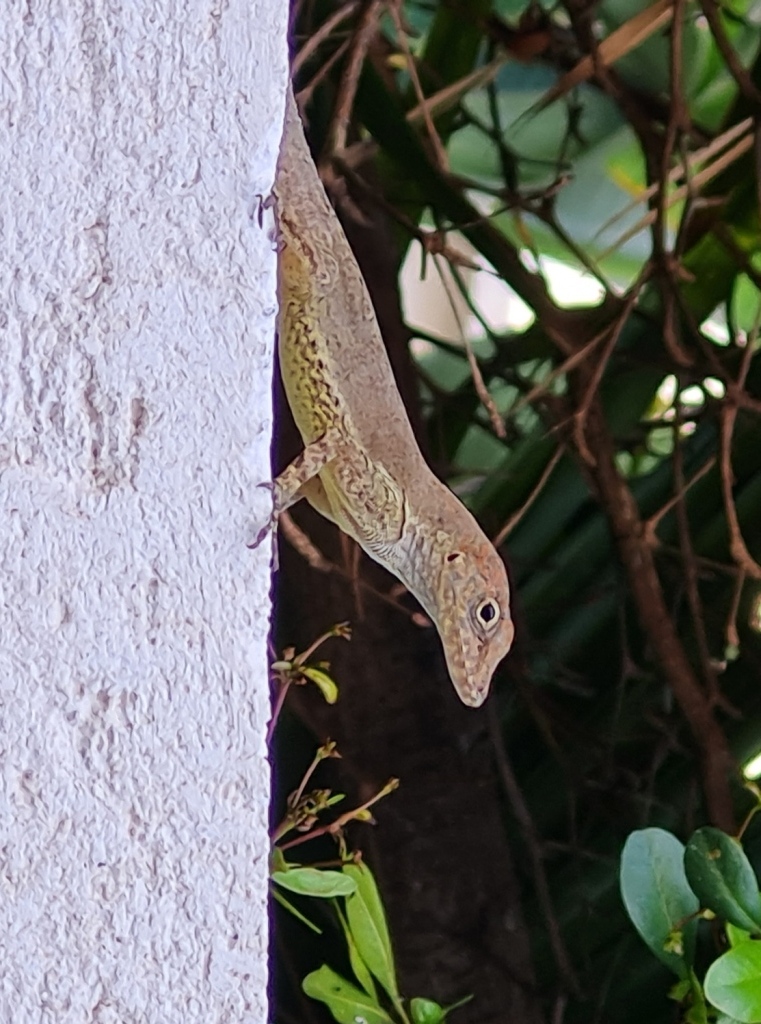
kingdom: Animalia
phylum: Chordata
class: Squamata
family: Dactyloidae
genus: Anolis
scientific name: Anolis scriptus
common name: Silver key anole
